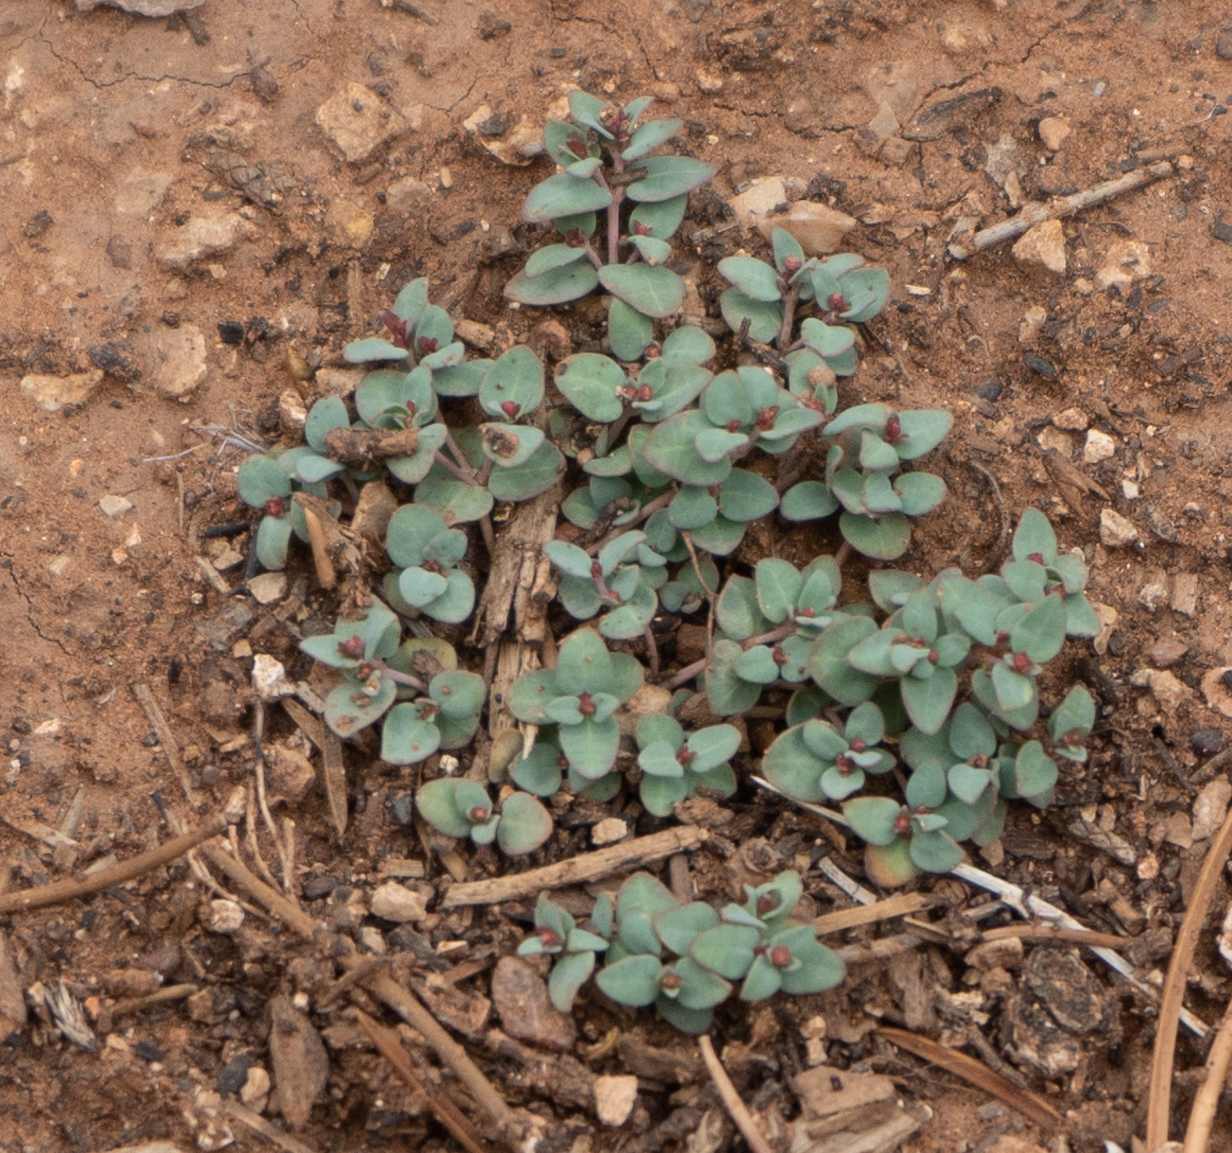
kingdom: Plantae
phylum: Tracheophyta
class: Magnoliopsida
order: Malpighiales
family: Euphorbiaceae
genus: Euphorbia
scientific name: Euphorbia fendleri
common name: Fendler's euphorbia
